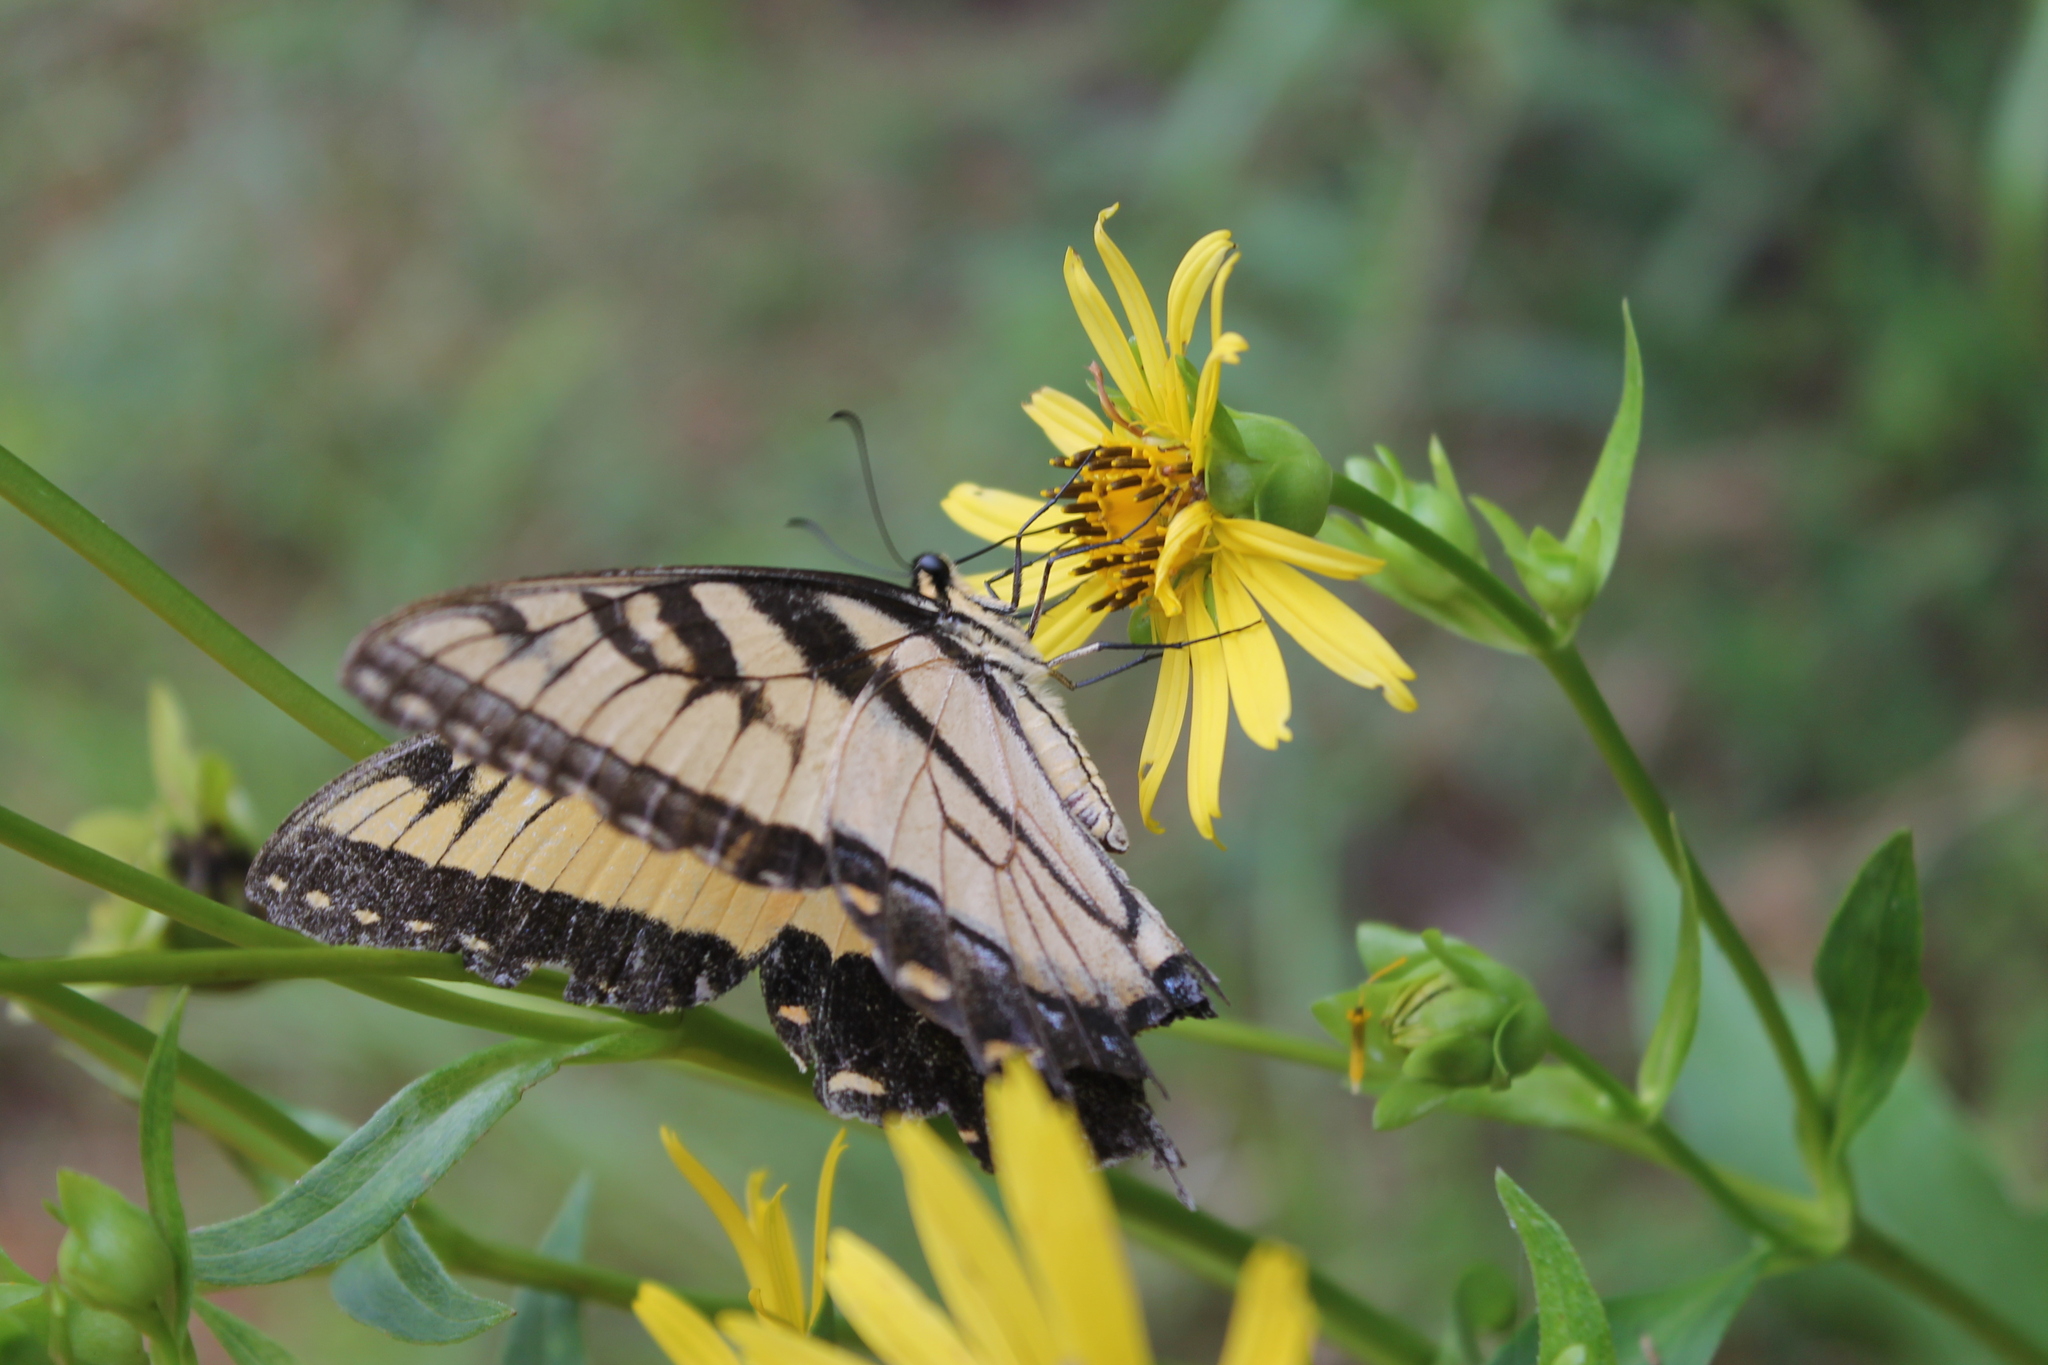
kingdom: Animalia
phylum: Arthropoda
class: Insecta
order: Lepidoptera
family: Papilionidae
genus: Papilio
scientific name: Papilio glaucus
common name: Tiger swallowtail
